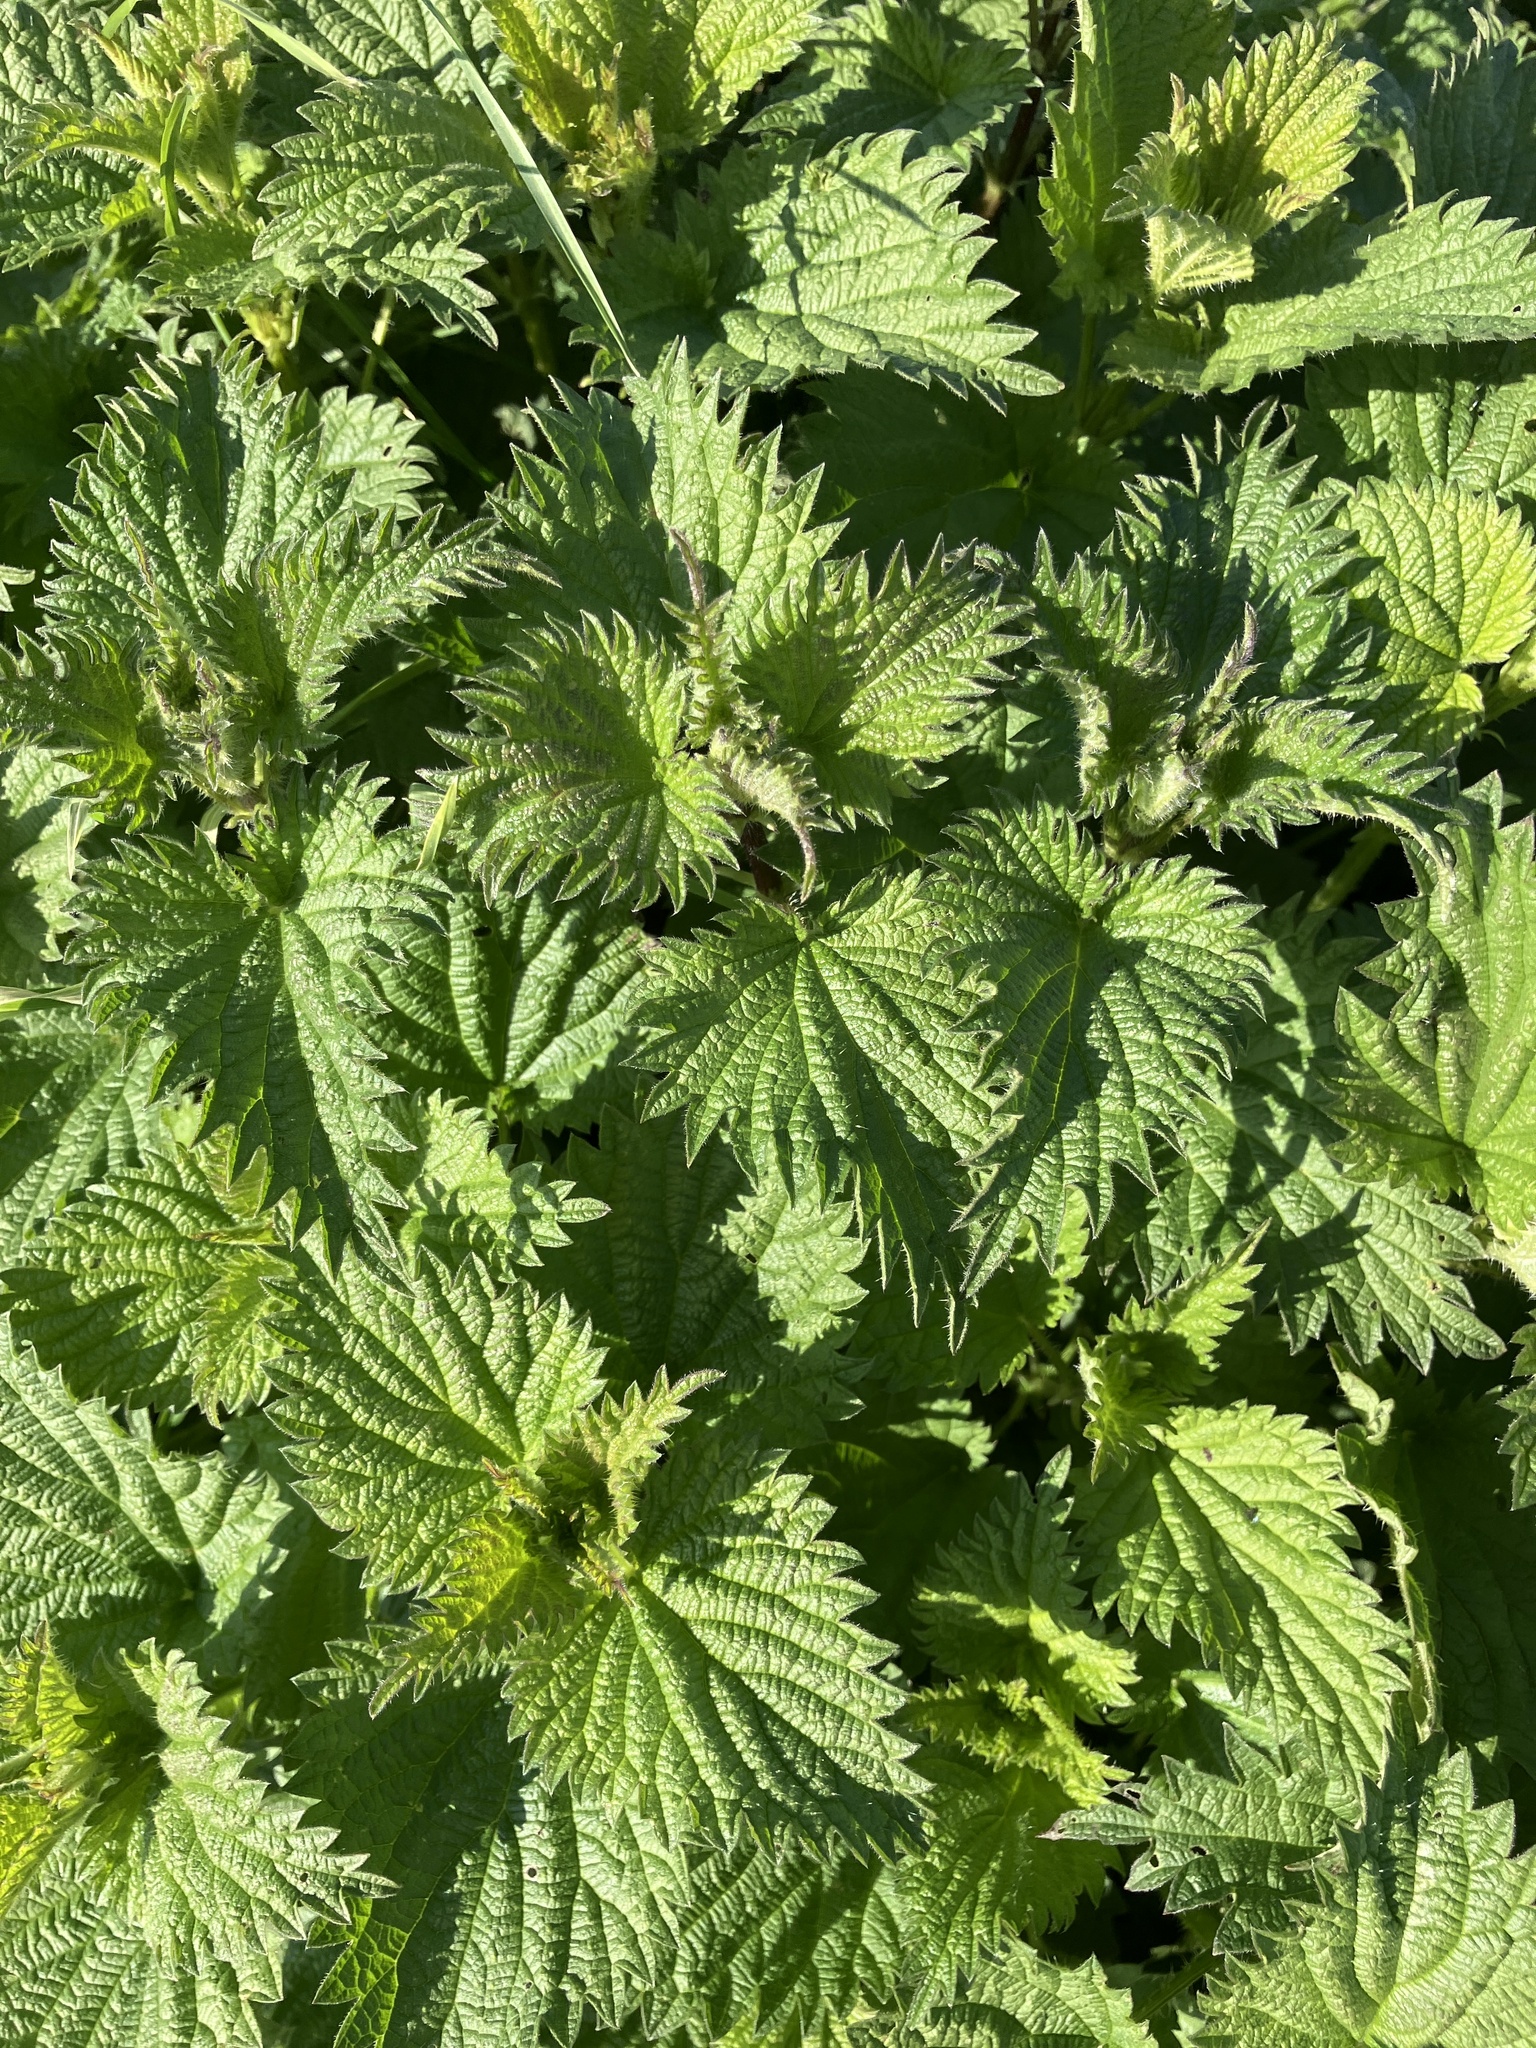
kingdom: Plantae
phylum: Tracheophyta
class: Magnoliopsida
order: Rosales
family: Urticaceae
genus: Urtica
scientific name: Urtica dioica
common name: Common nettle
